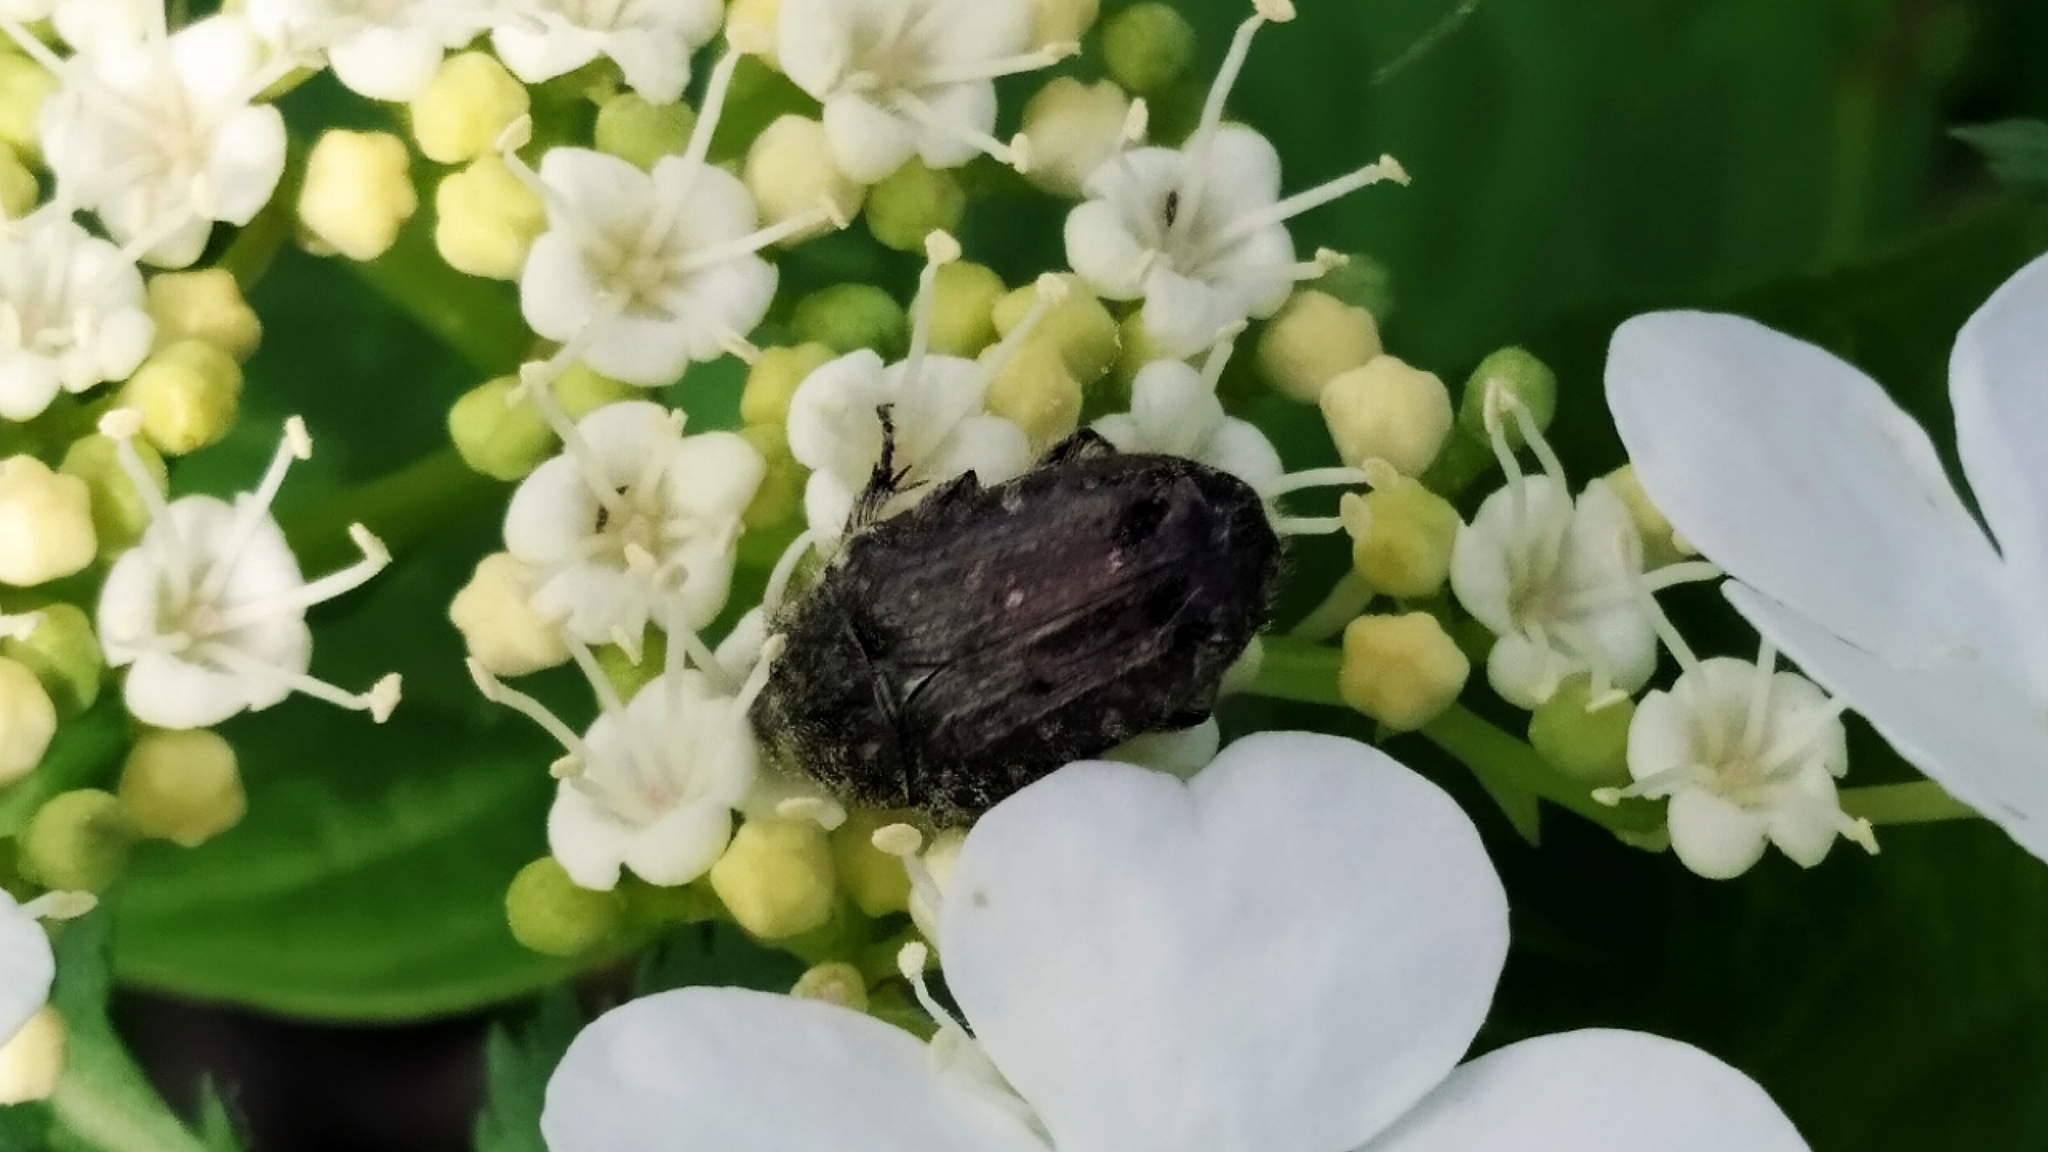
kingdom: Animalia
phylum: Arthropoda
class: Insecta
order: Coleoptera
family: Scarabaeidae
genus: Oxythyrea
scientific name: Oxythyrea funesta
